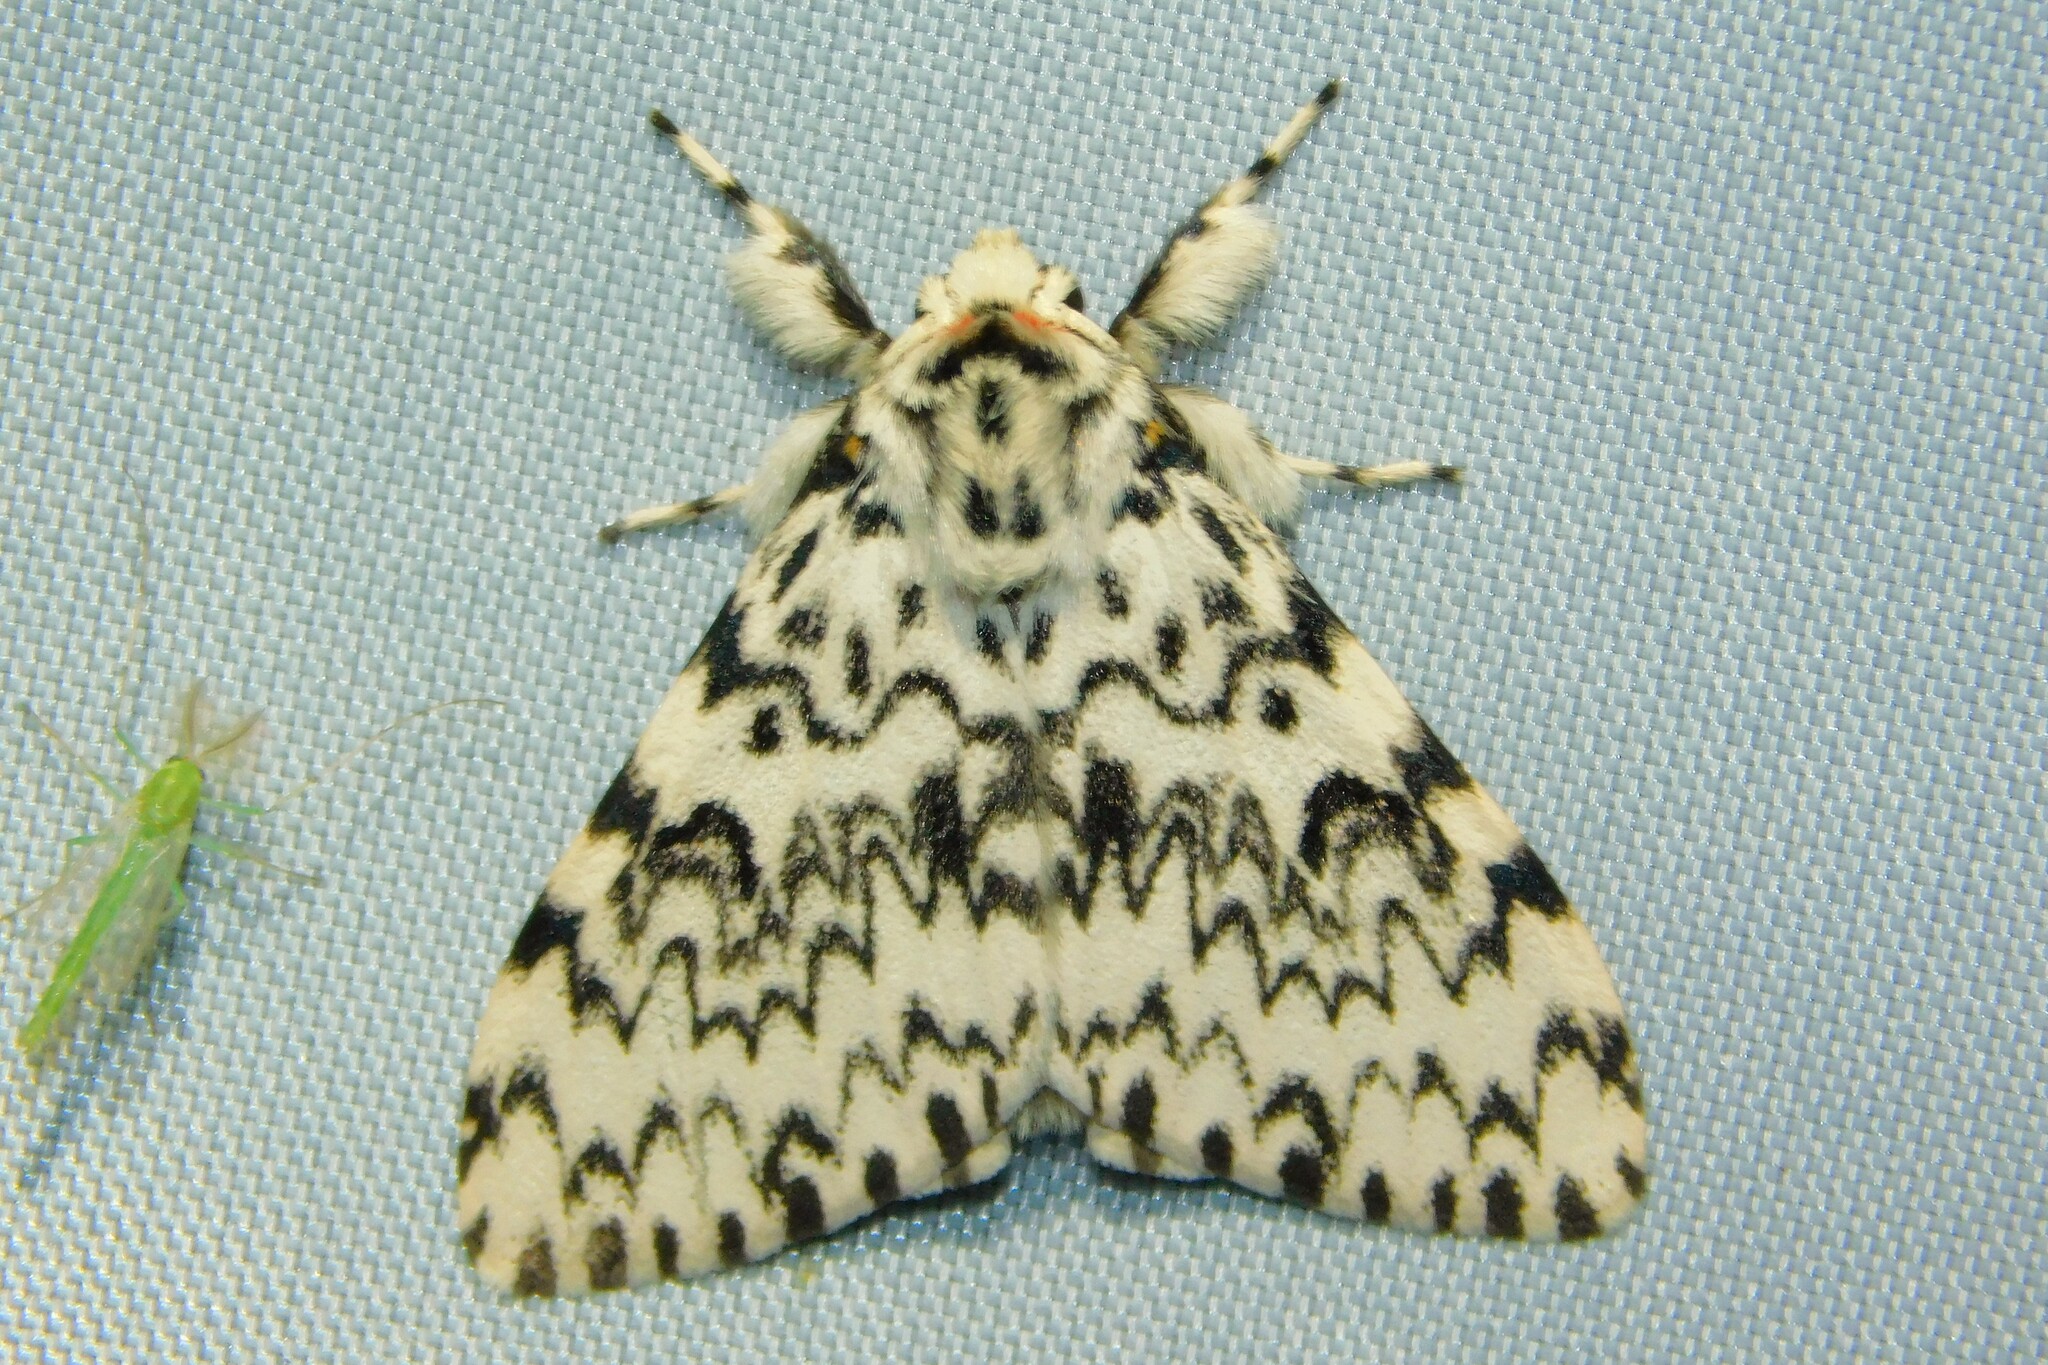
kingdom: Animalia
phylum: Arthropoda
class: Insecta
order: Lepidoptera
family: Erebidae
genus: Lymantria
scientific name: Lymantria monacha
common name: Black arches
